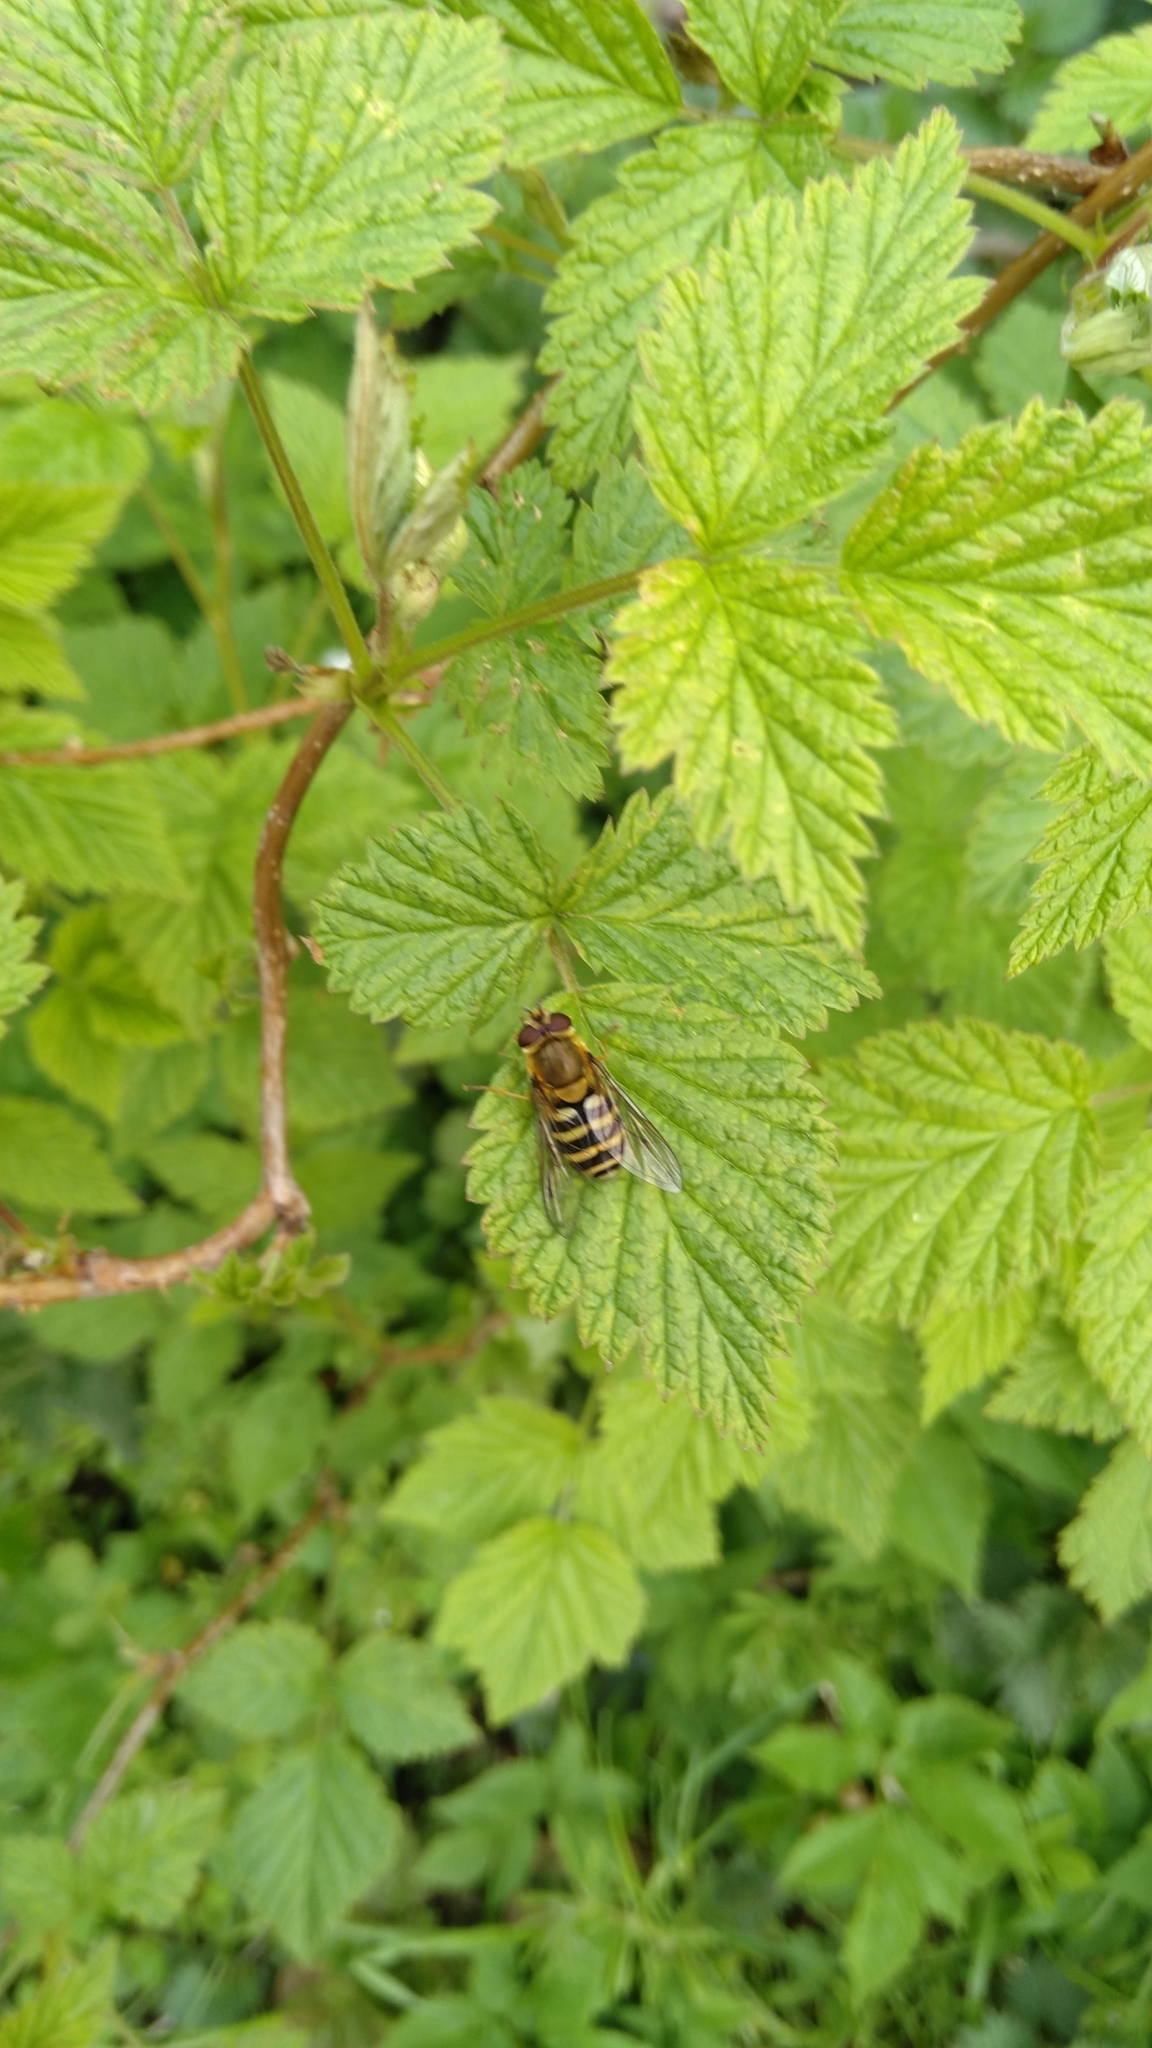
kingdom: Animalia
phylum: Arthropoda
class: Insecta
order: Diptera
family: Syrphidae
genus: Syrphus
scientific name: Syrphus
